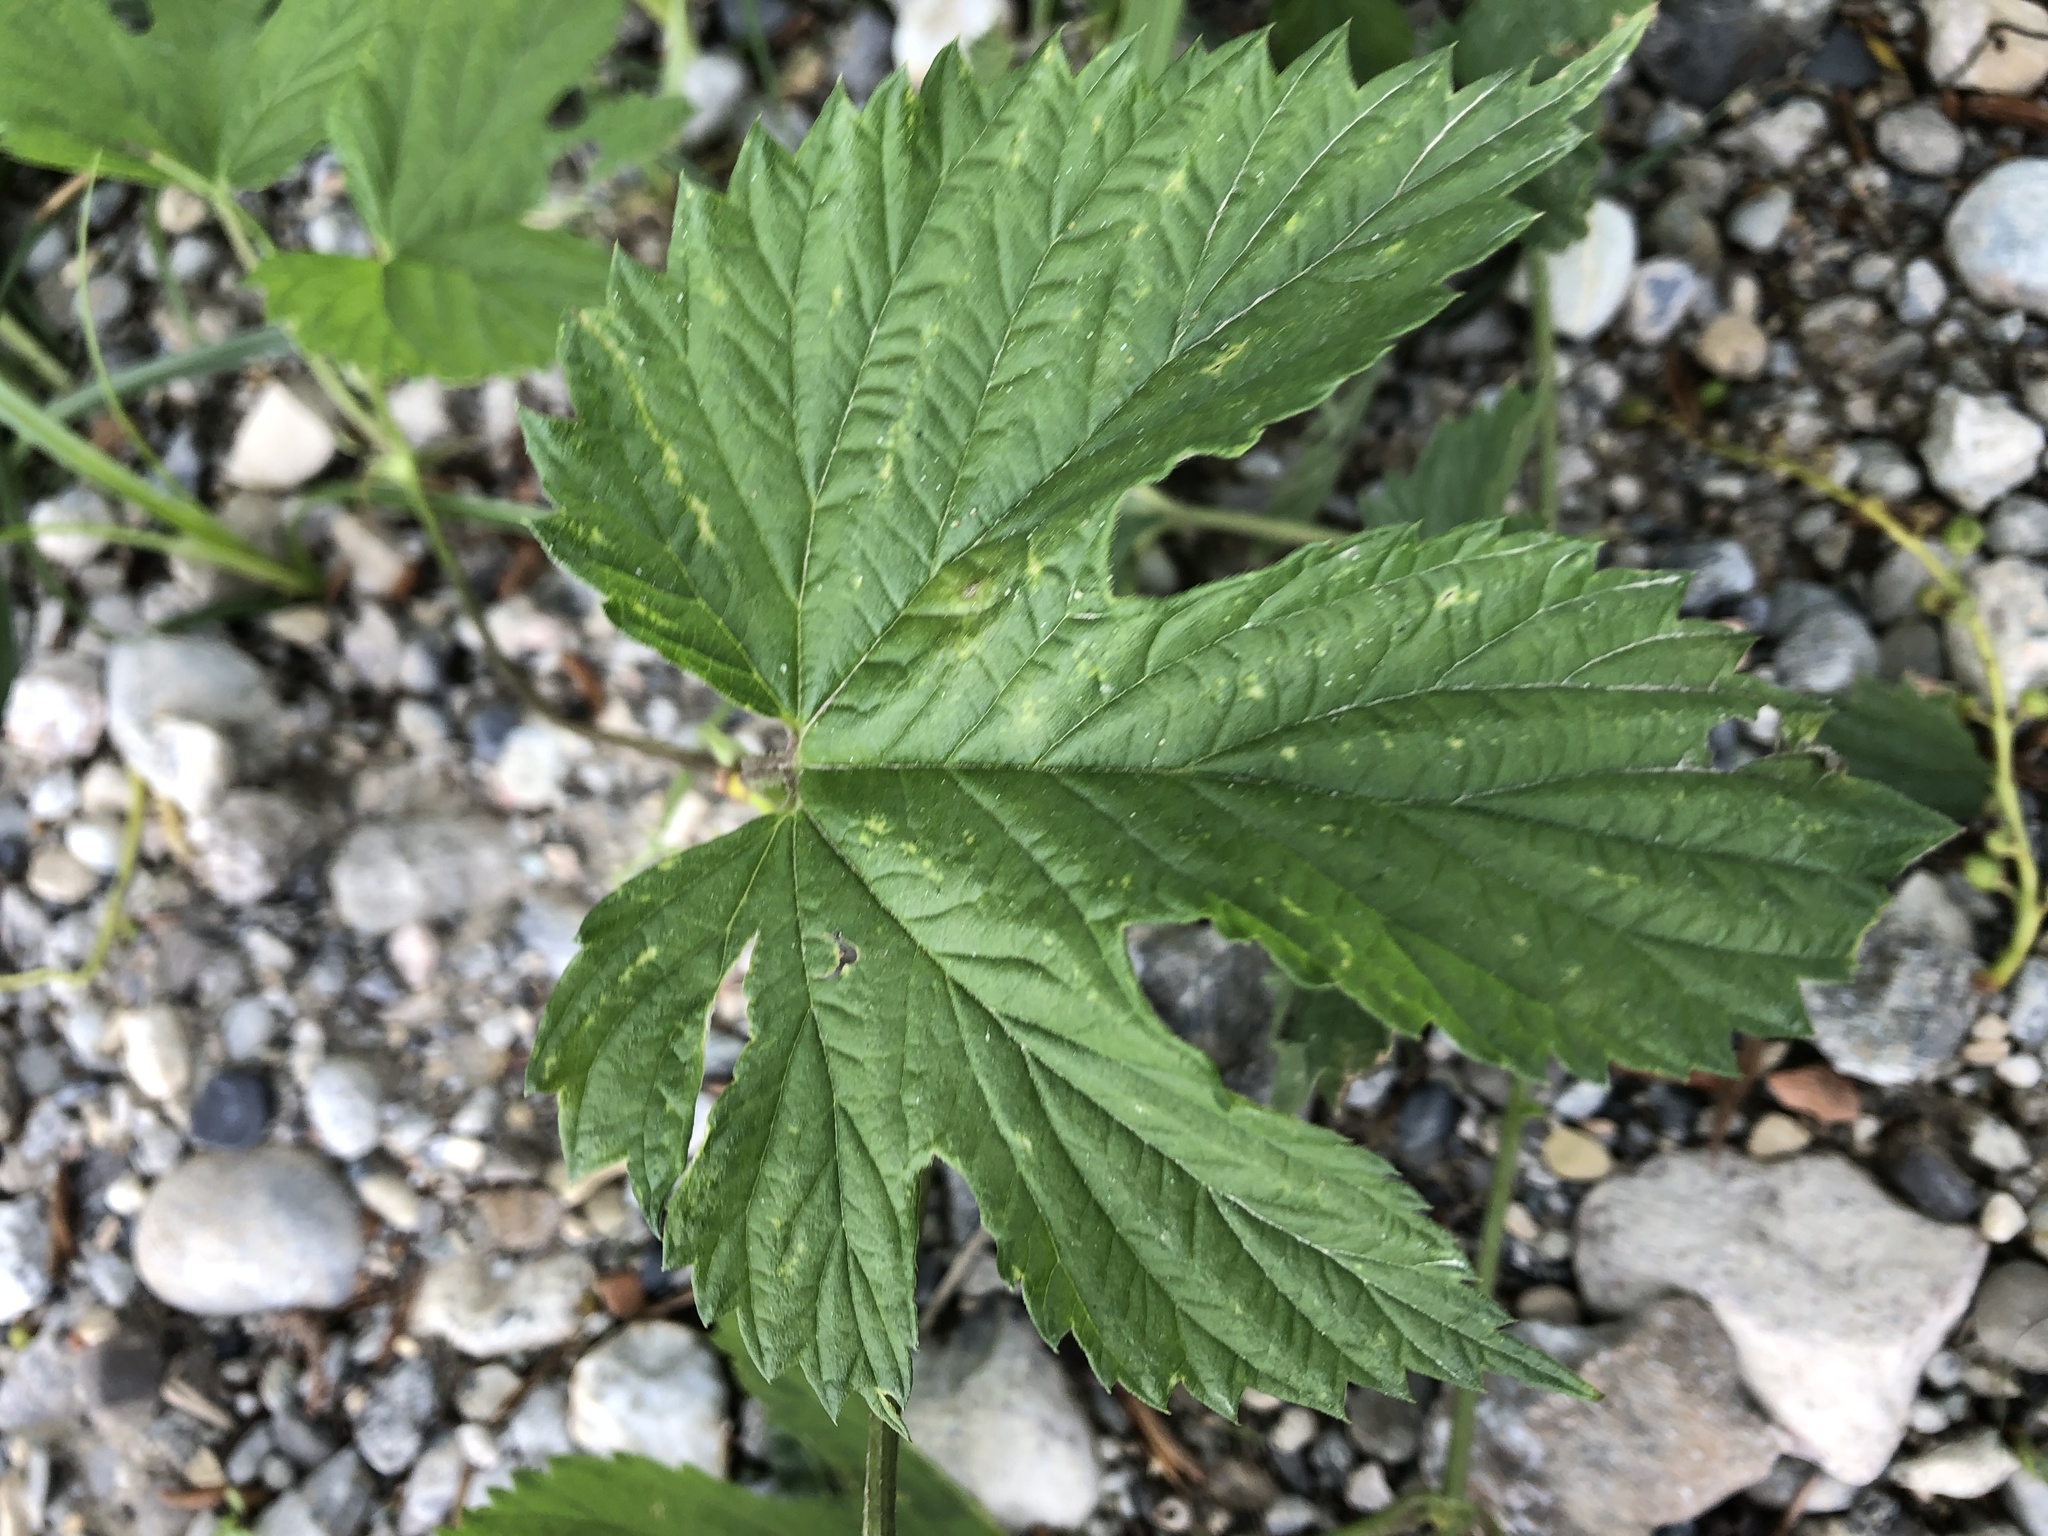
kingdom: Plantae
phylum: Tracheophyta
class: Magnoliopsida
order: Rosales
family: Cannabaceae
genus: Humulus
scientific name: Humulus lupulus
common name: Hop
